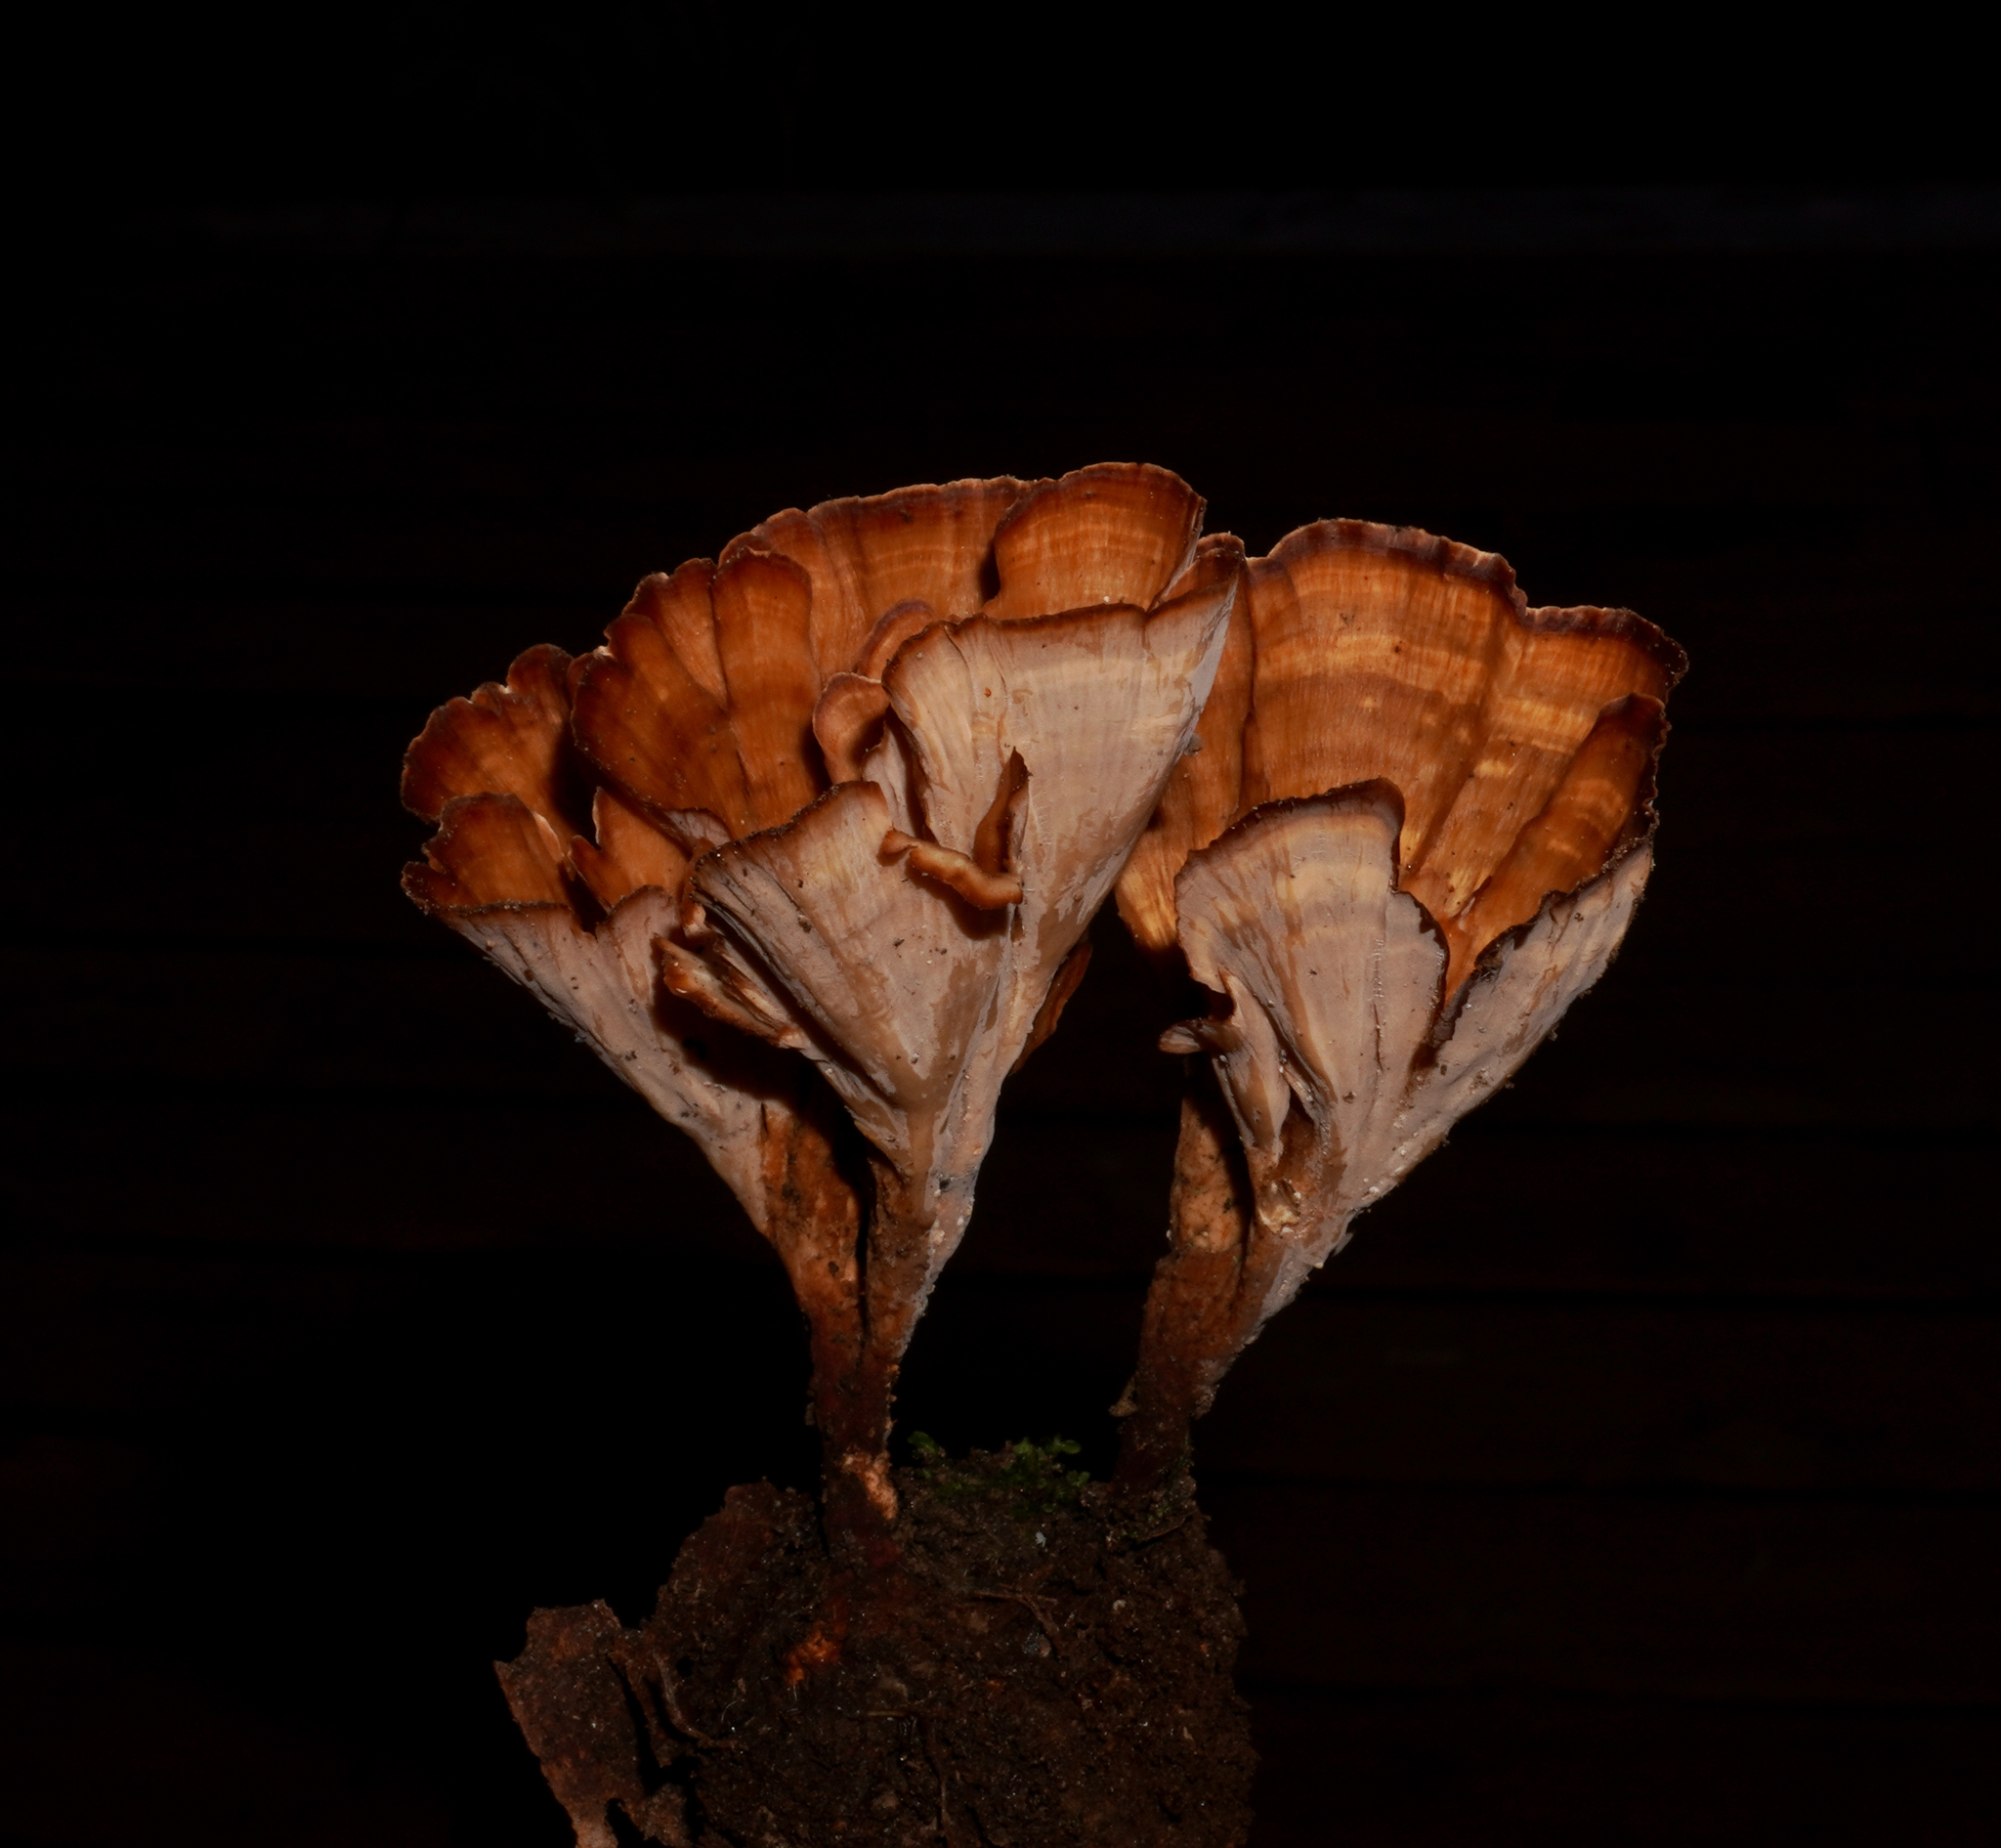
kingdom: Fungi
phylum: Basidiomycota
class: Agaricomycetes
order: Polyporales
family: Podoscyphaceae
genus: Podoscypha
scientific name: Podoscypha petalodes
